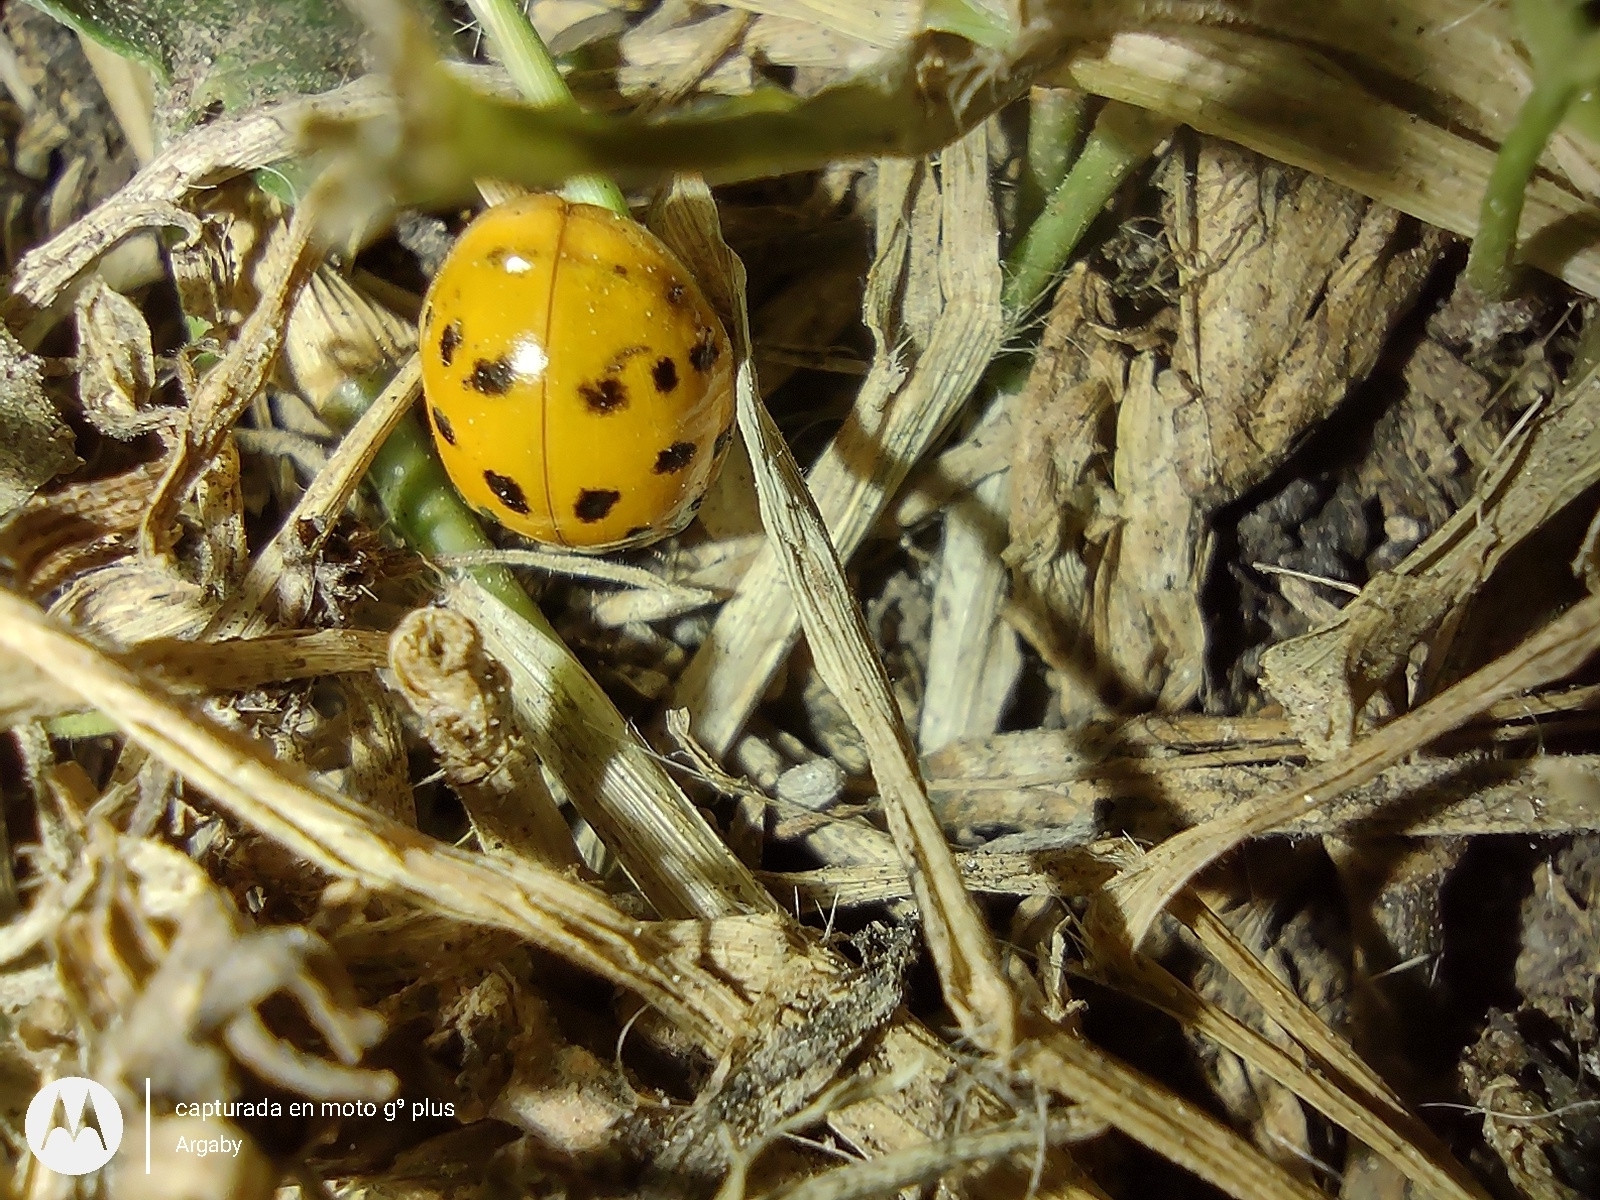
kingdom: Animalia
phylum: Arthropoda
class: Insecta
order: Coleoptera
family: Coccinellidae
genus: Harmonia
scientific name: Harmonia axyridis
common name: Harlequin ladybird
